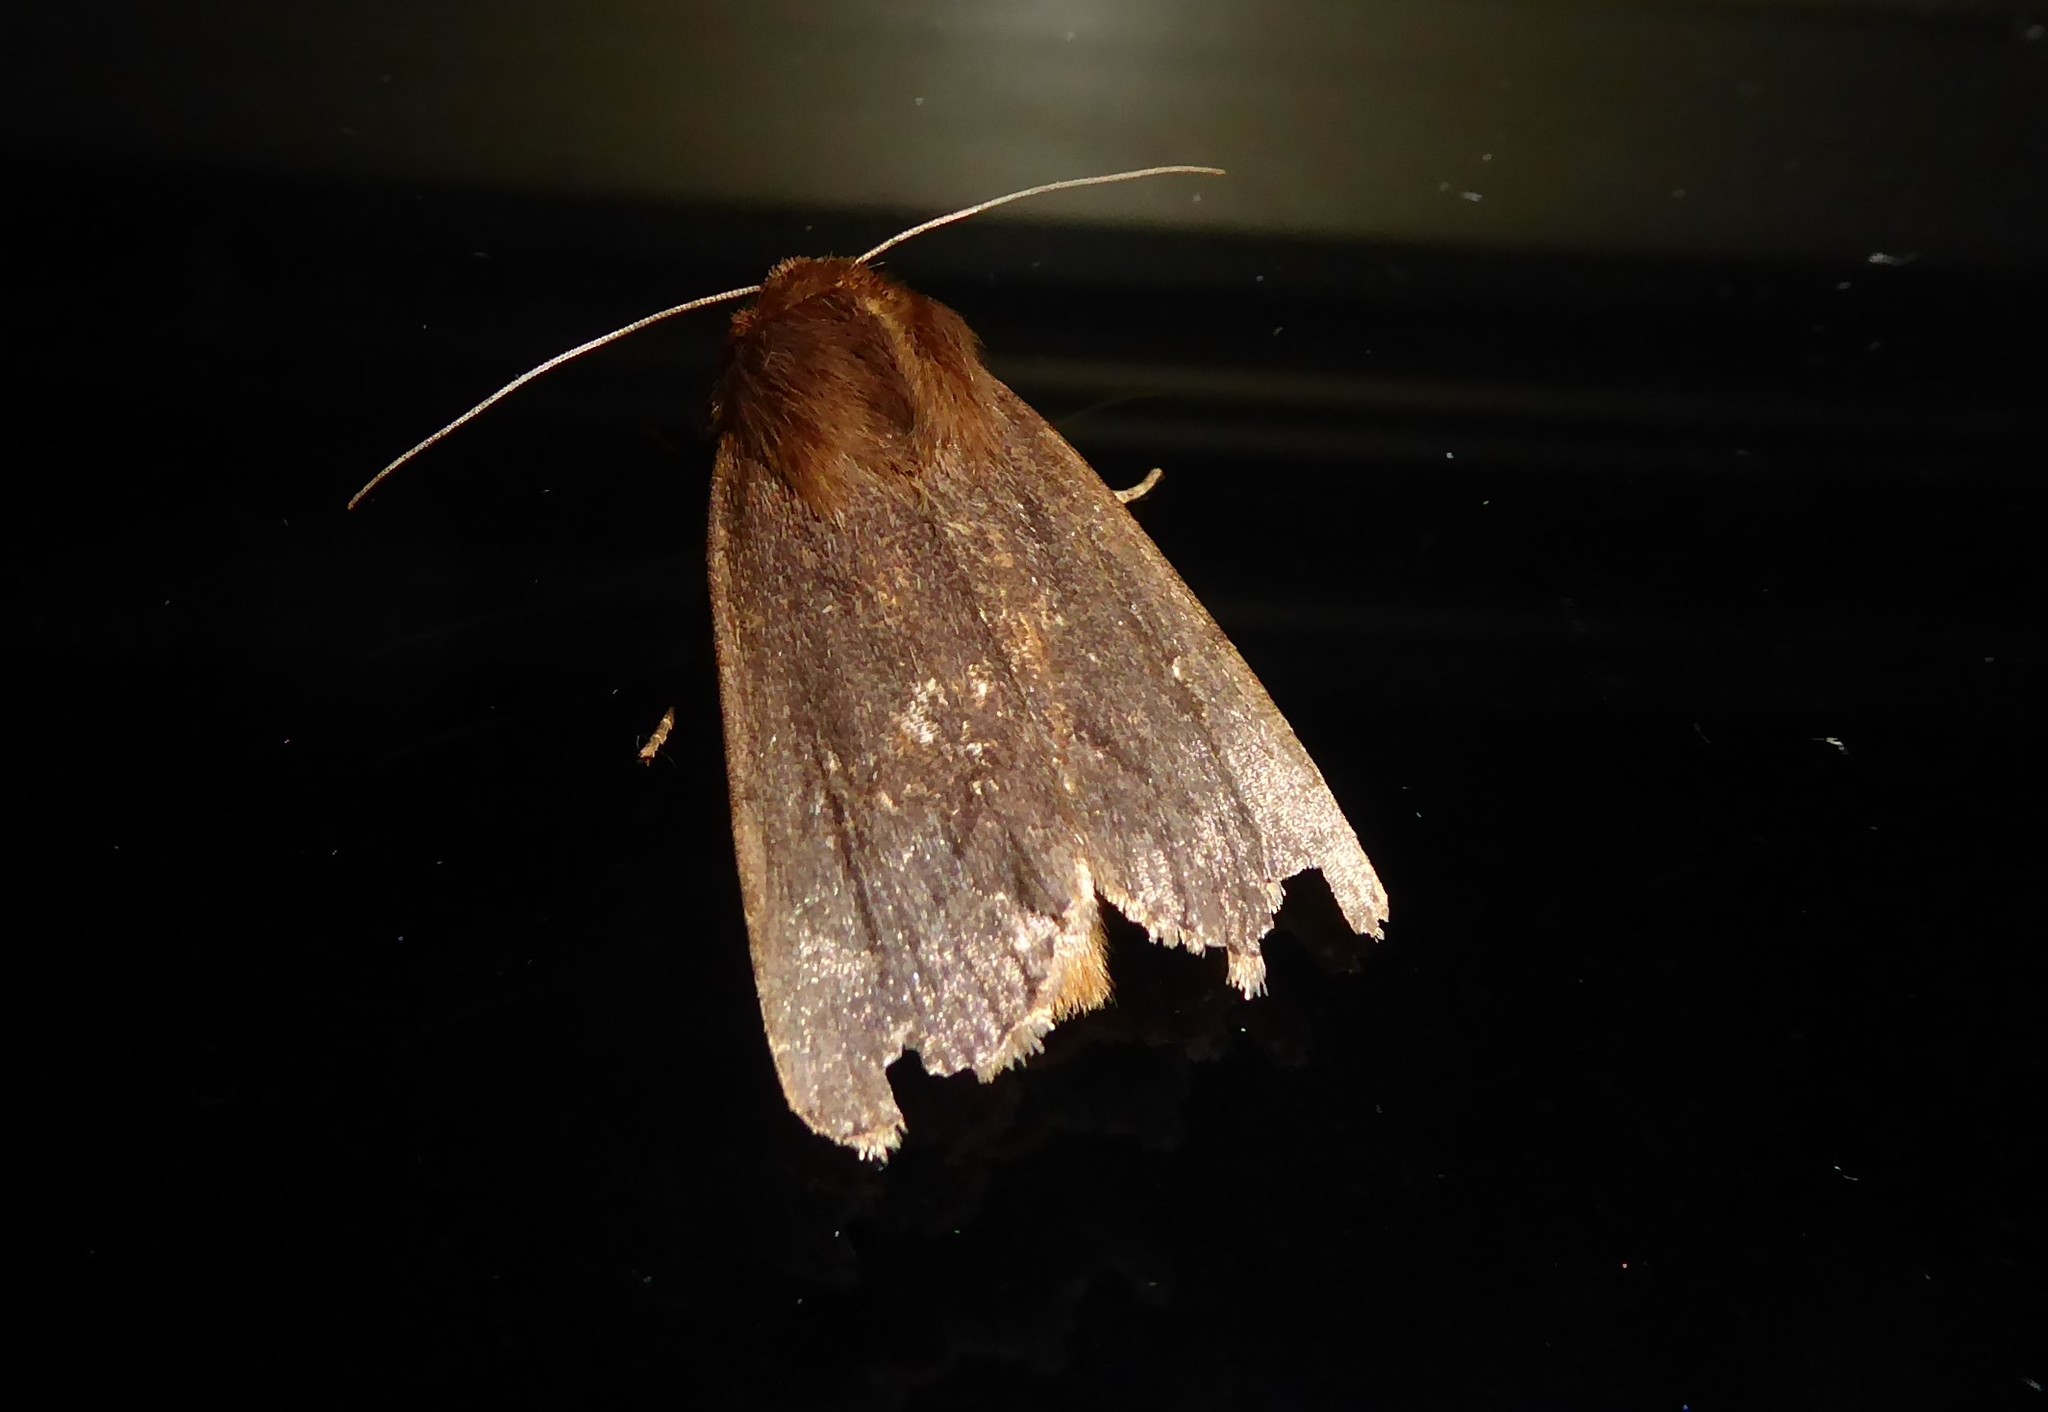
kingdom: Animalia
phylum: Arthropoda
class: Insecta
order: Lepidoptera
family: Noctuidae
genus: Bityla
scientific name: Bityla defigurata
